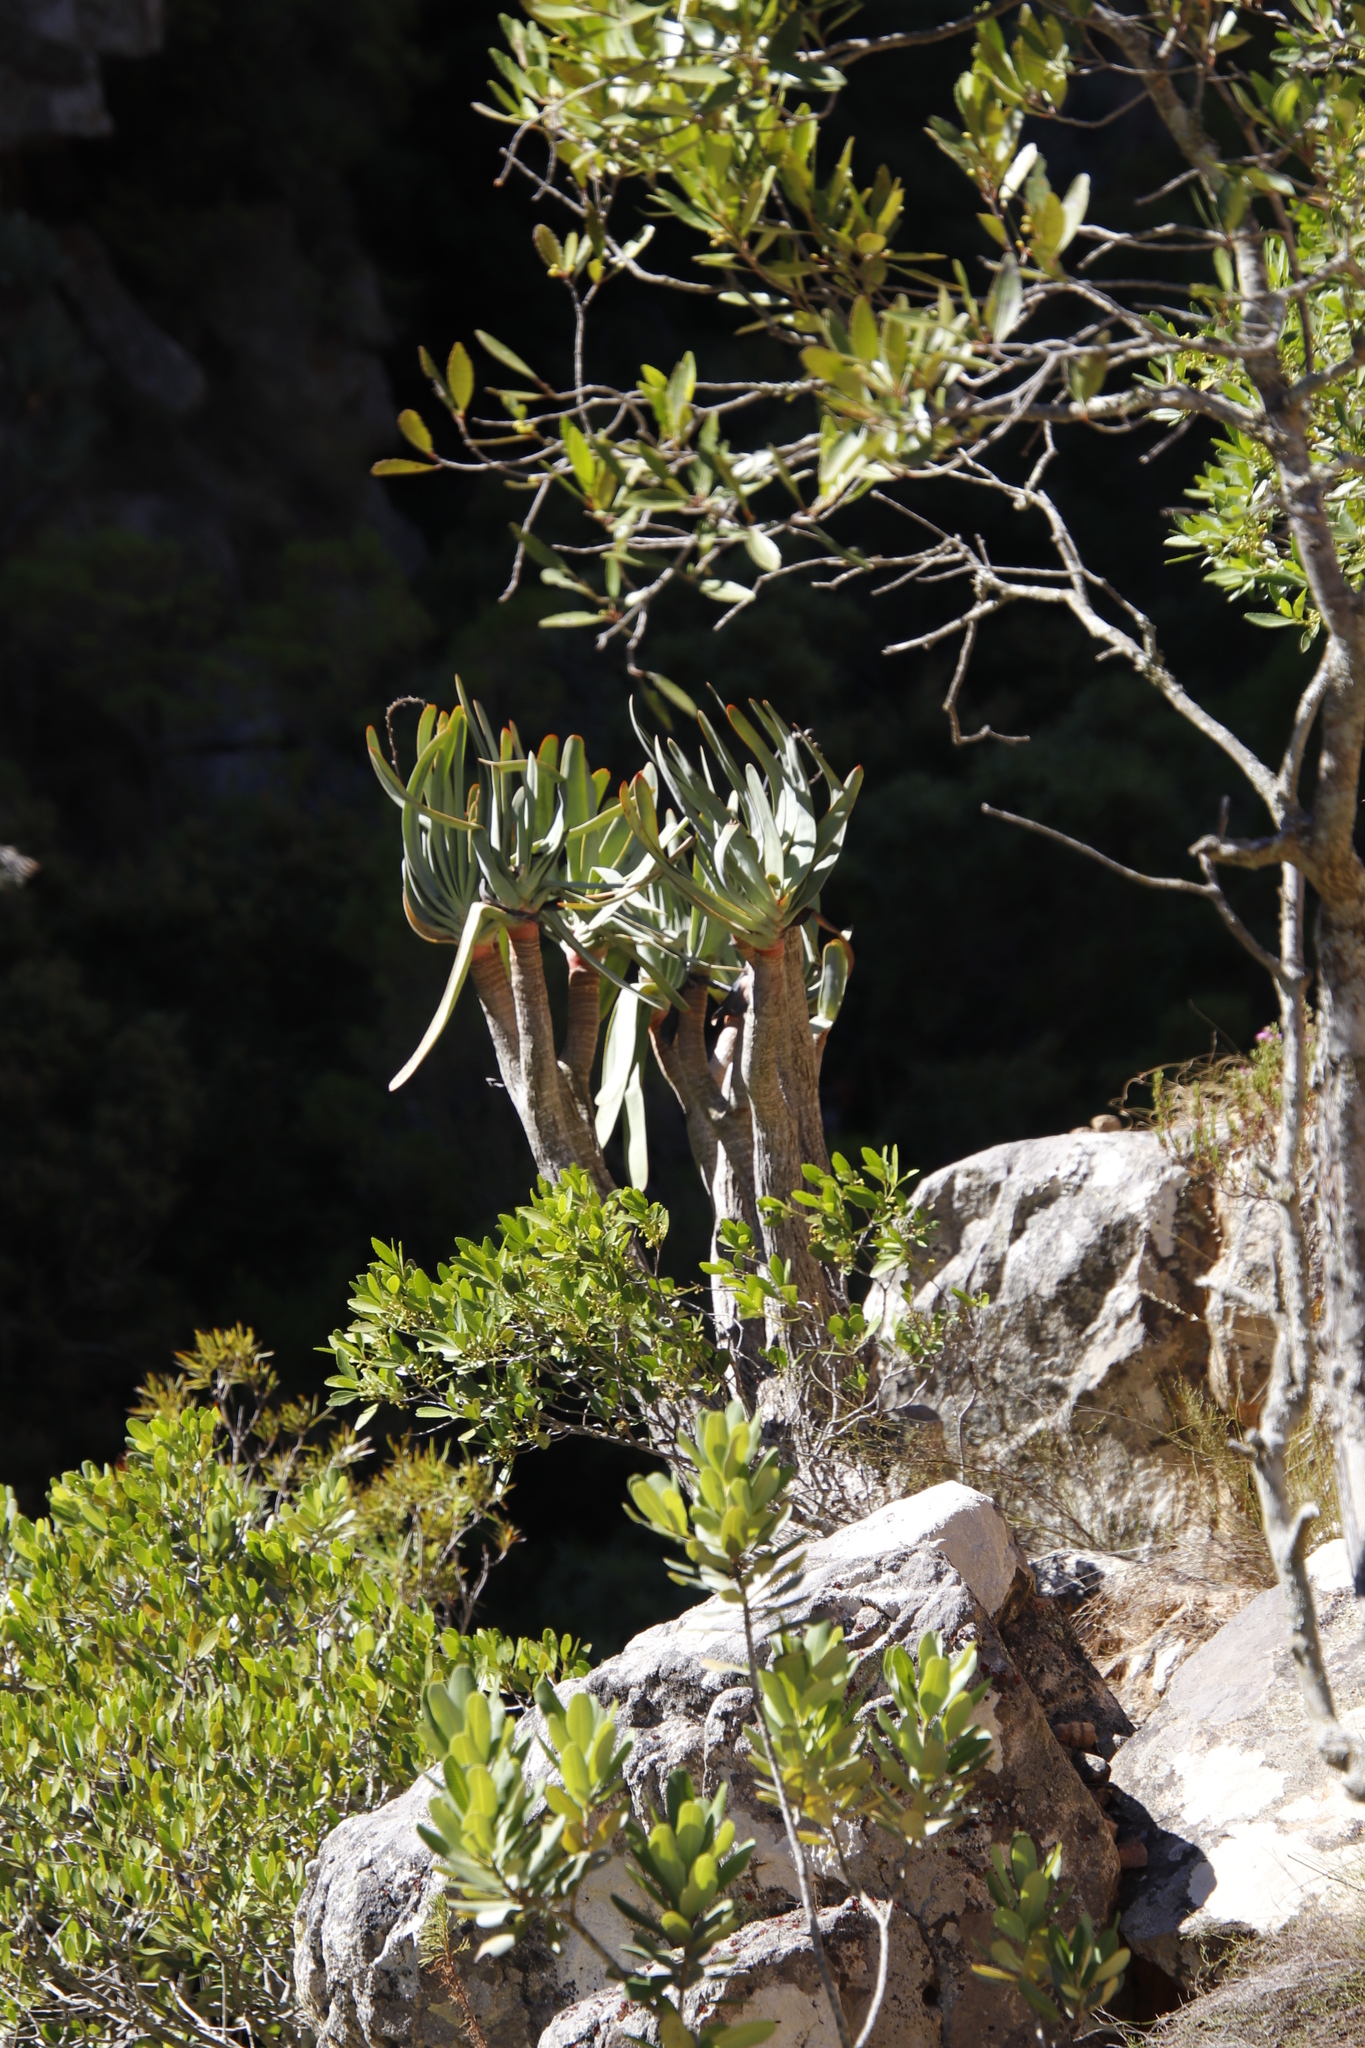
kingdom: Plantae
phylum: Tracheophyta
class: Liliopsida
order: Asparagales
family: Asphodelaceae
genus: Kumara
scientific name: Kumara plicatilis
